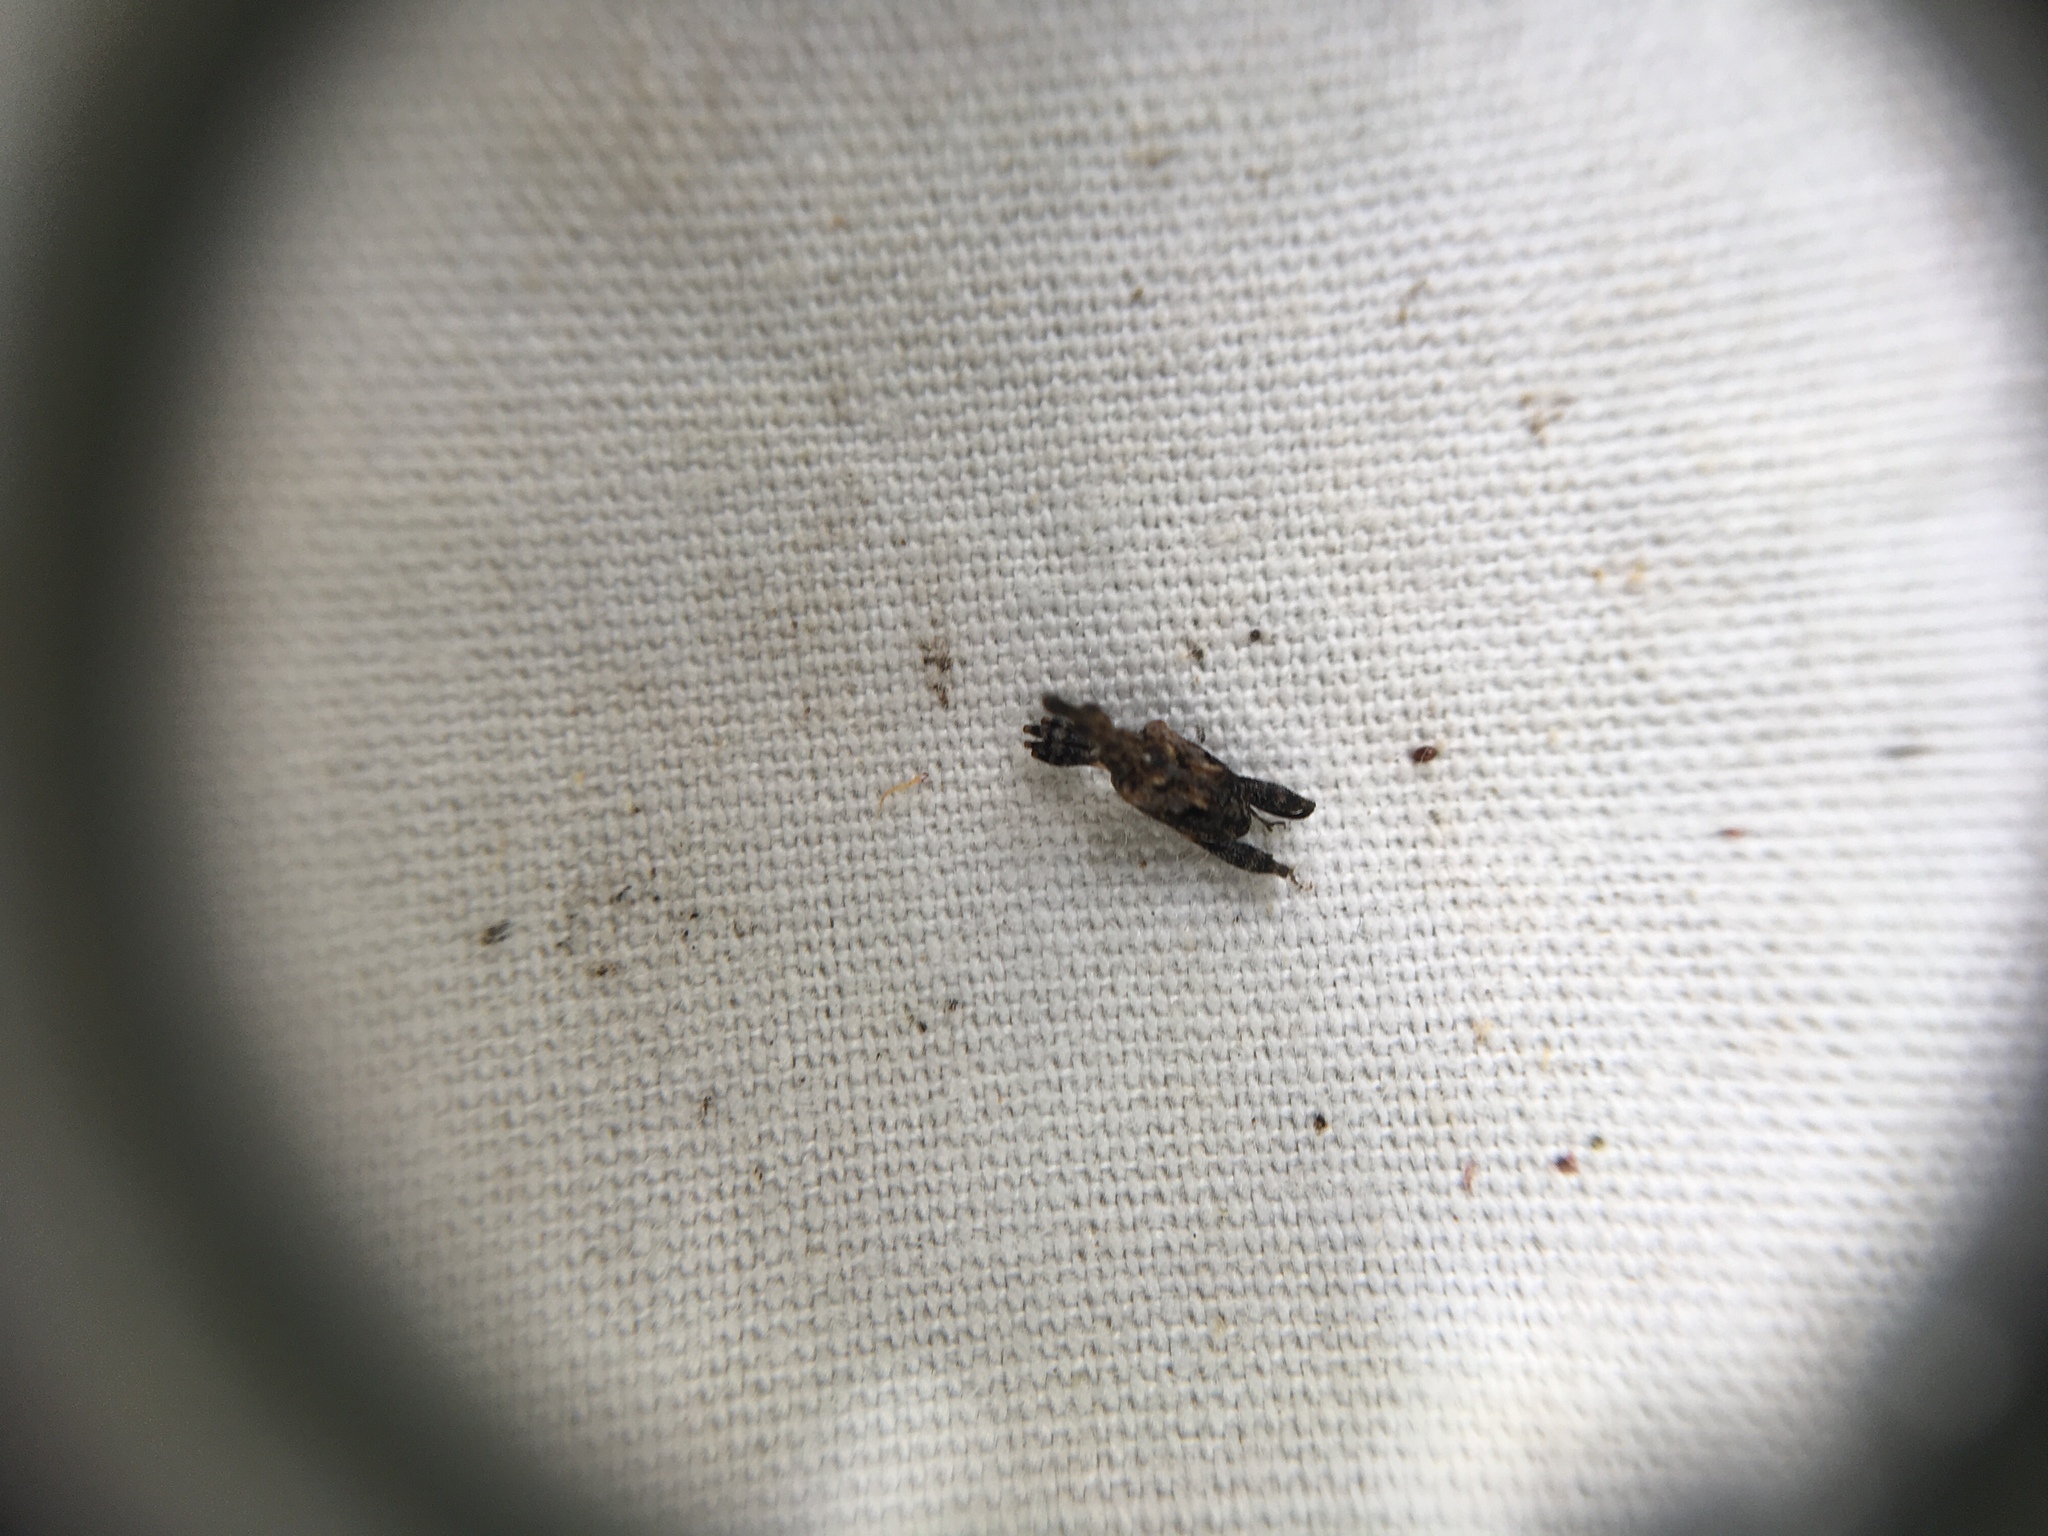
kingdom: Animalia
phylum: Arthropoda
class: Insecta
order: Coleoptera
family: Curculionidae
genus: Stephanorhynchus
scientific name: Stephanorhynchus lawsoni
